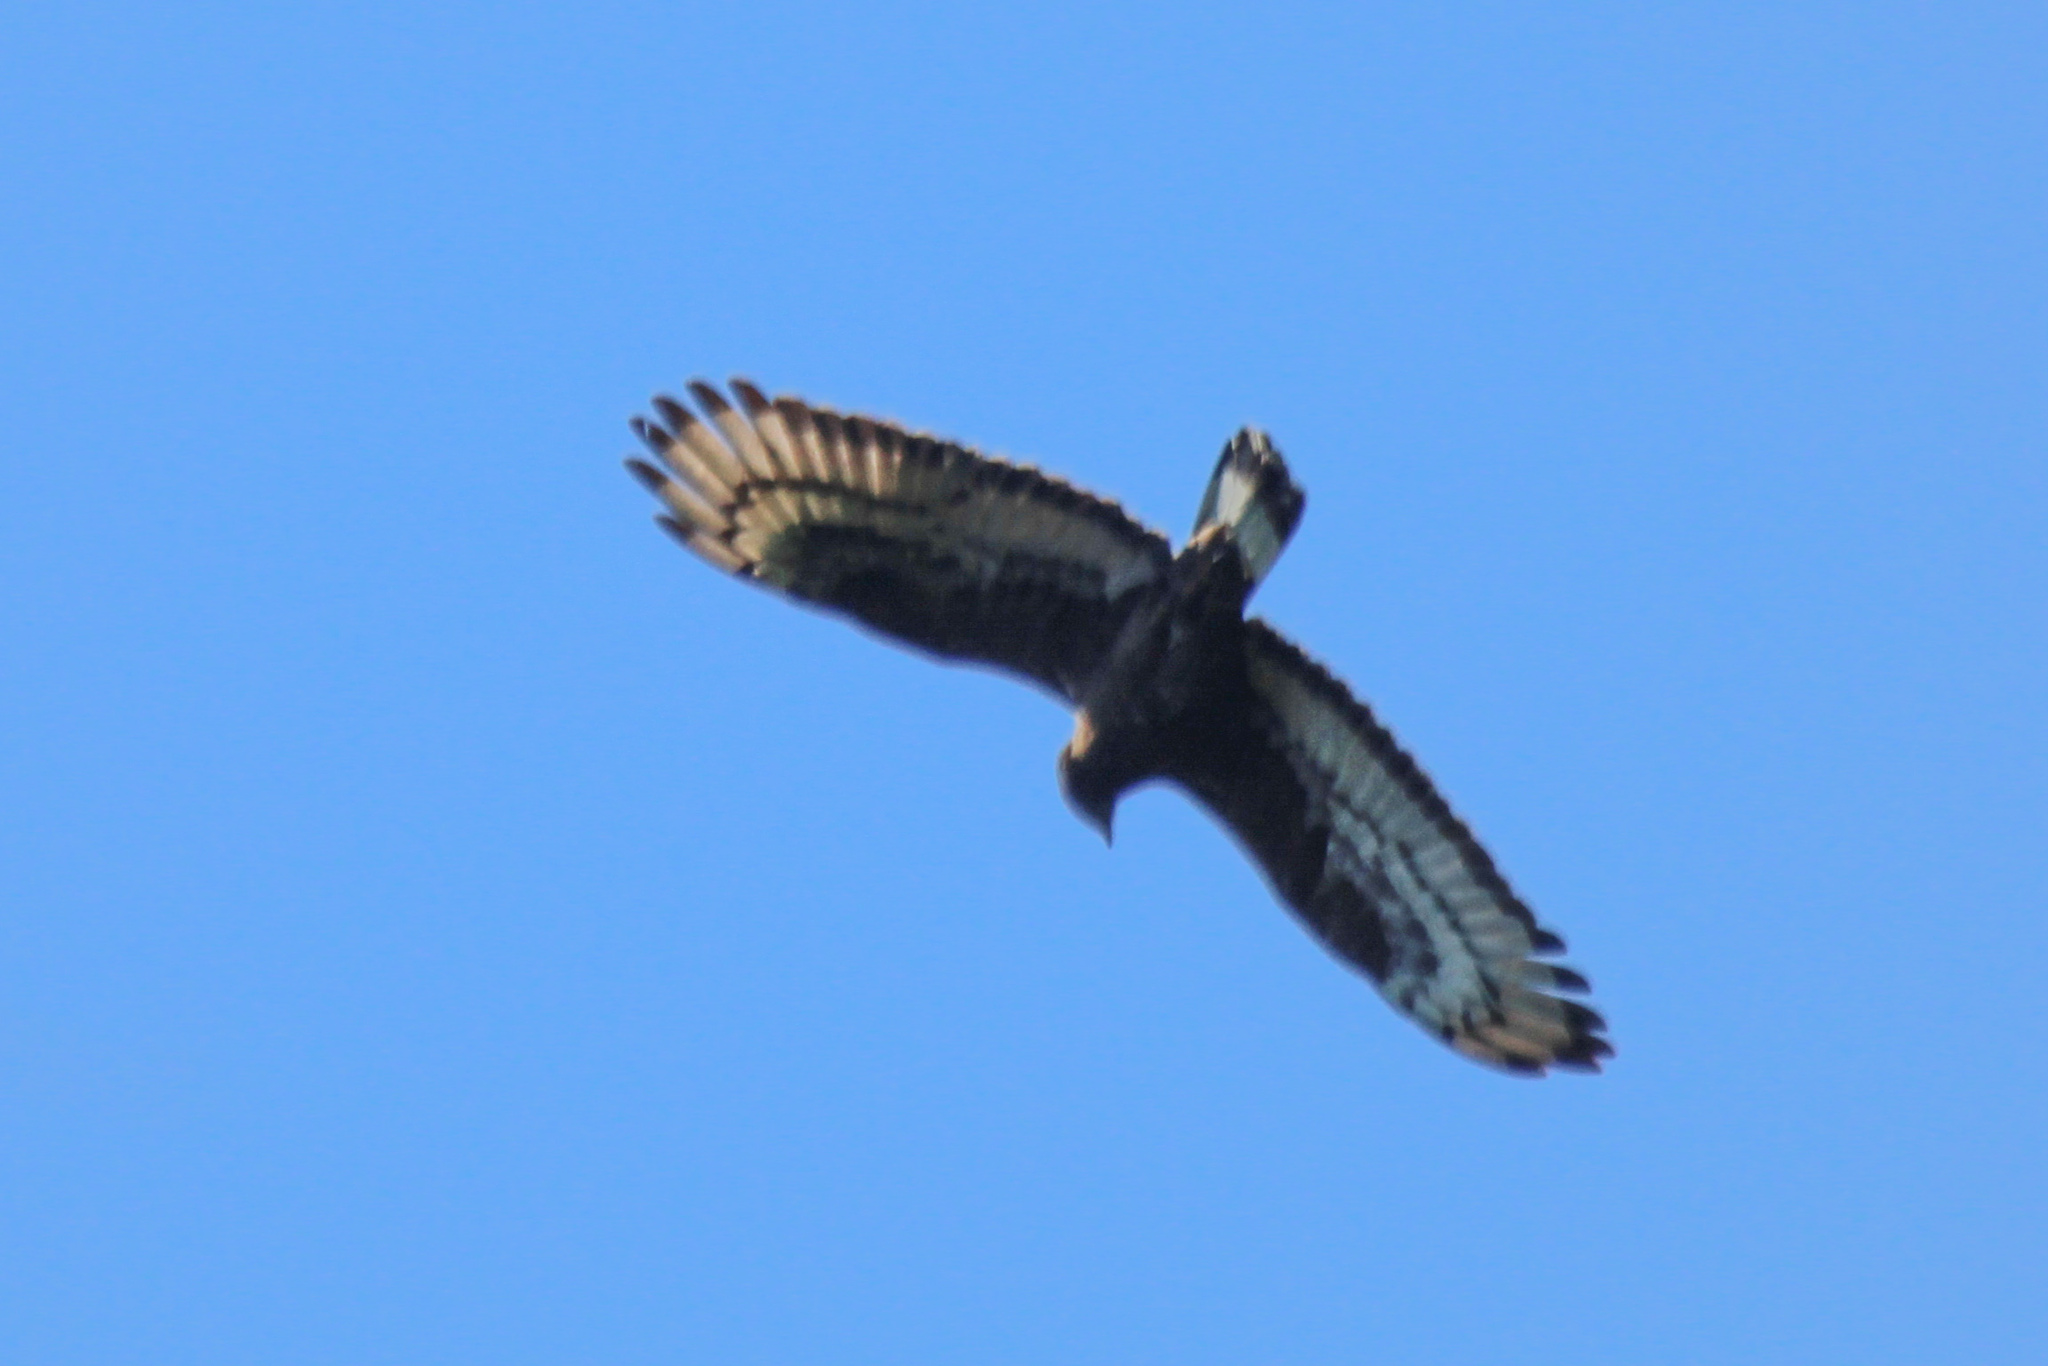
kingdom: Animalia
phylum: Chordata
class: Aves
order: Accipitriformes
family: Accipitridae
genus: Pernis
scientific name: Pernis ptilorhynchus
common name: Crested honey buzzard
